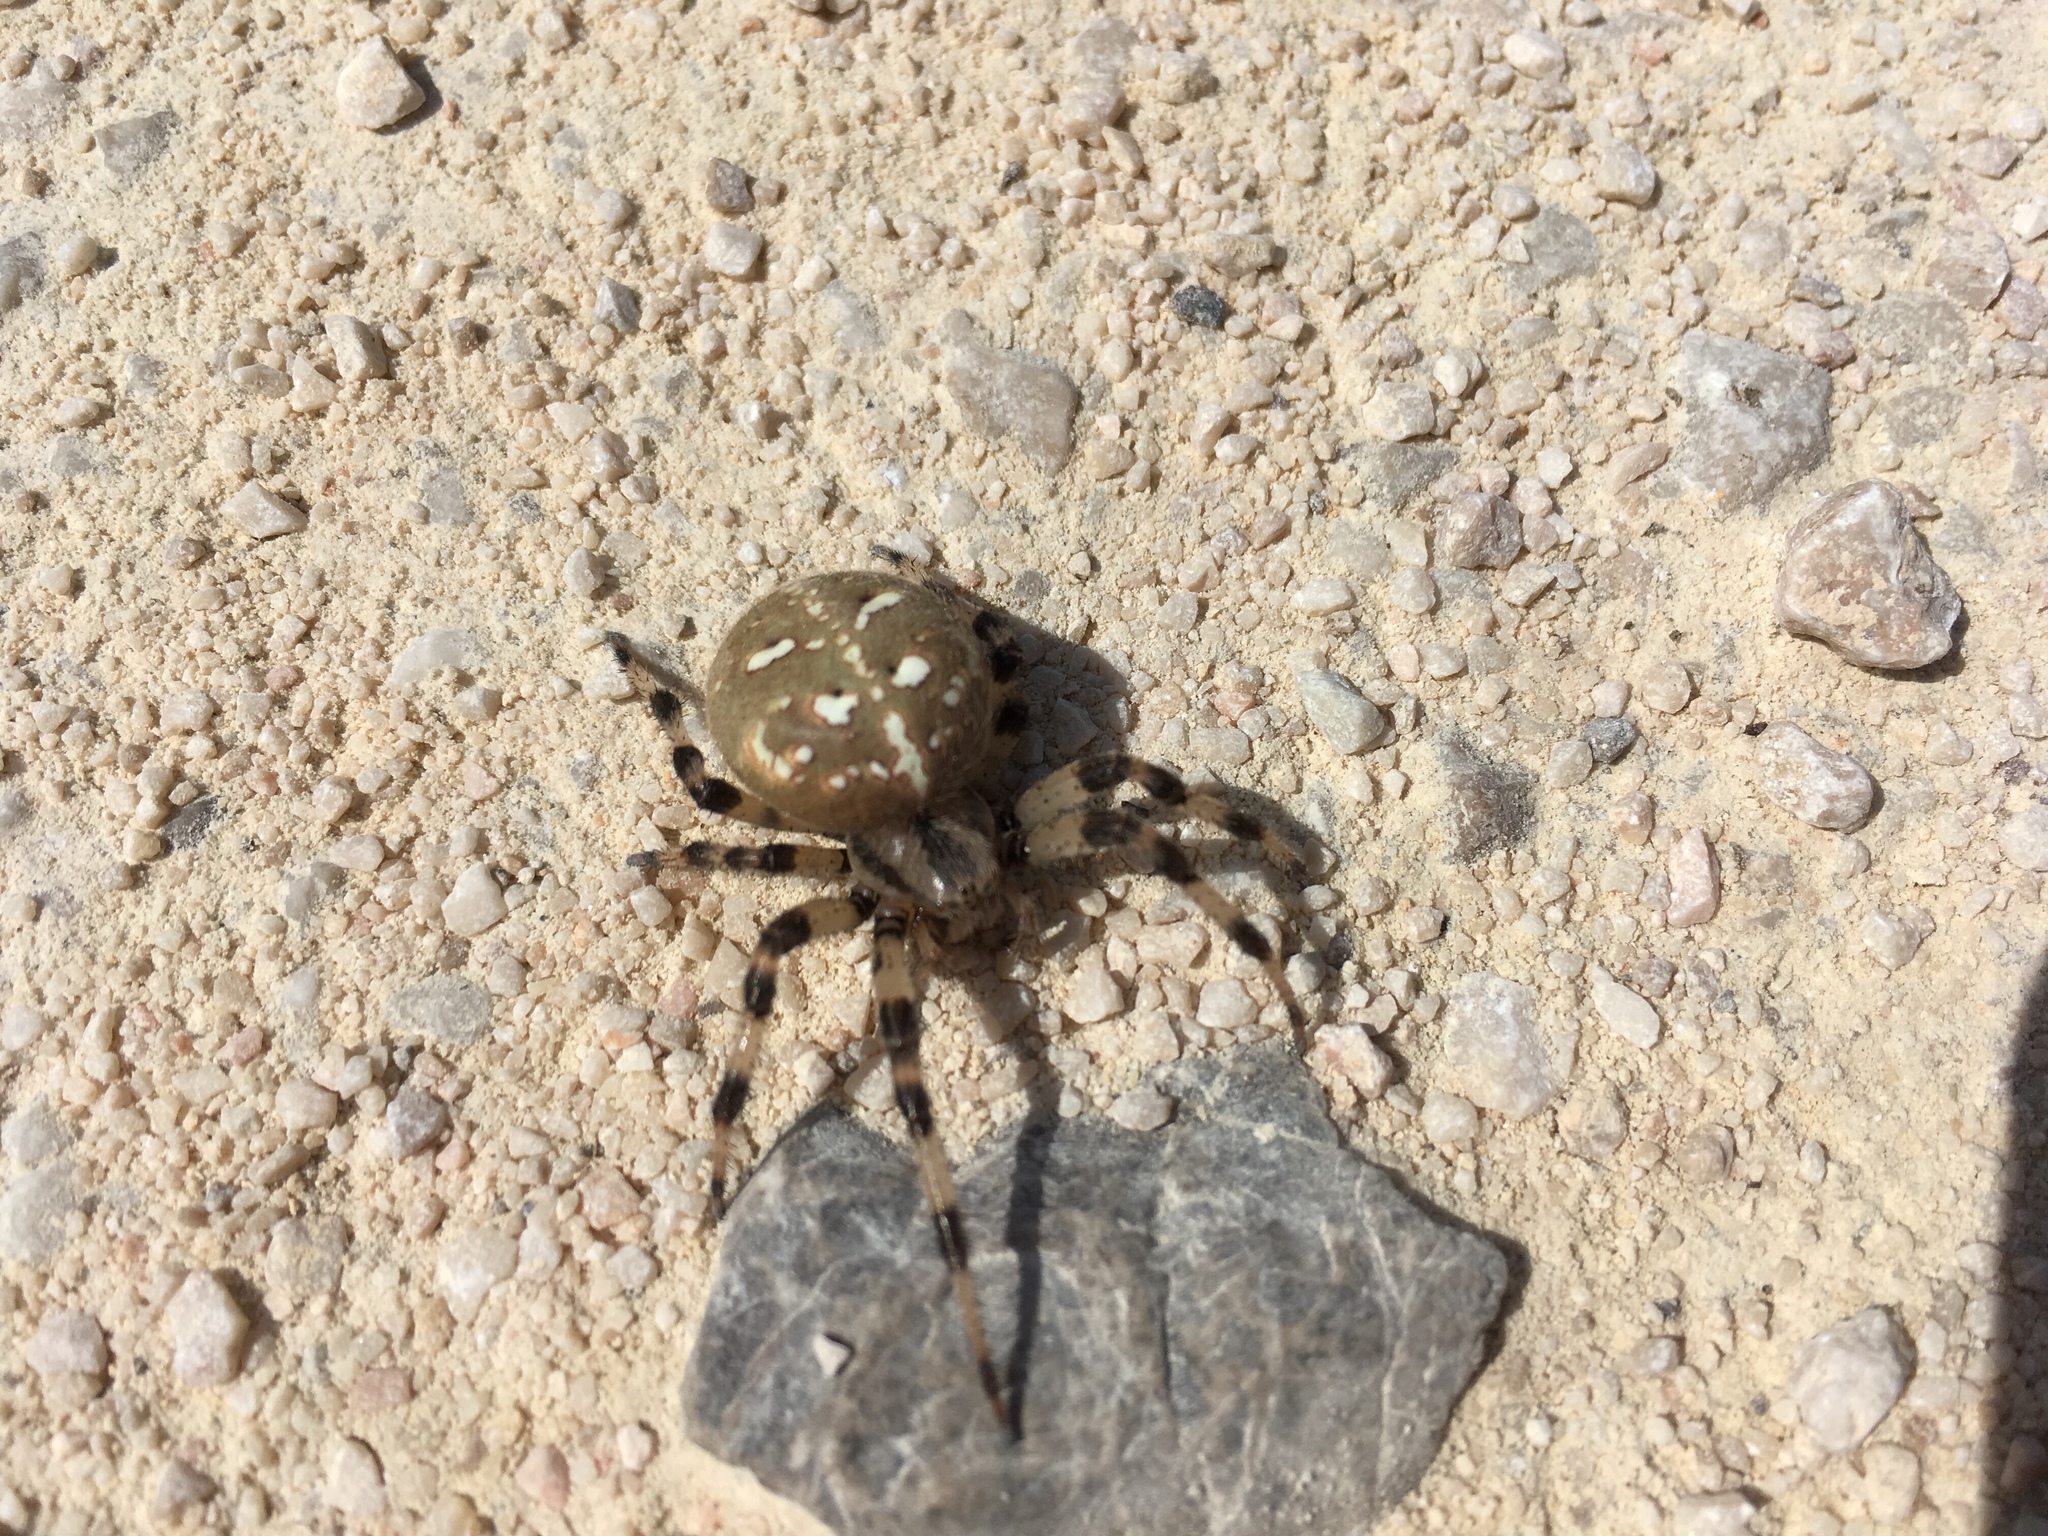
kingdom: Animalia
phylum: Arthropoda
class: Arachnida
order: Araneae
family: Araneidae
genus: Araneus
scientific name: Araneus quadratus
